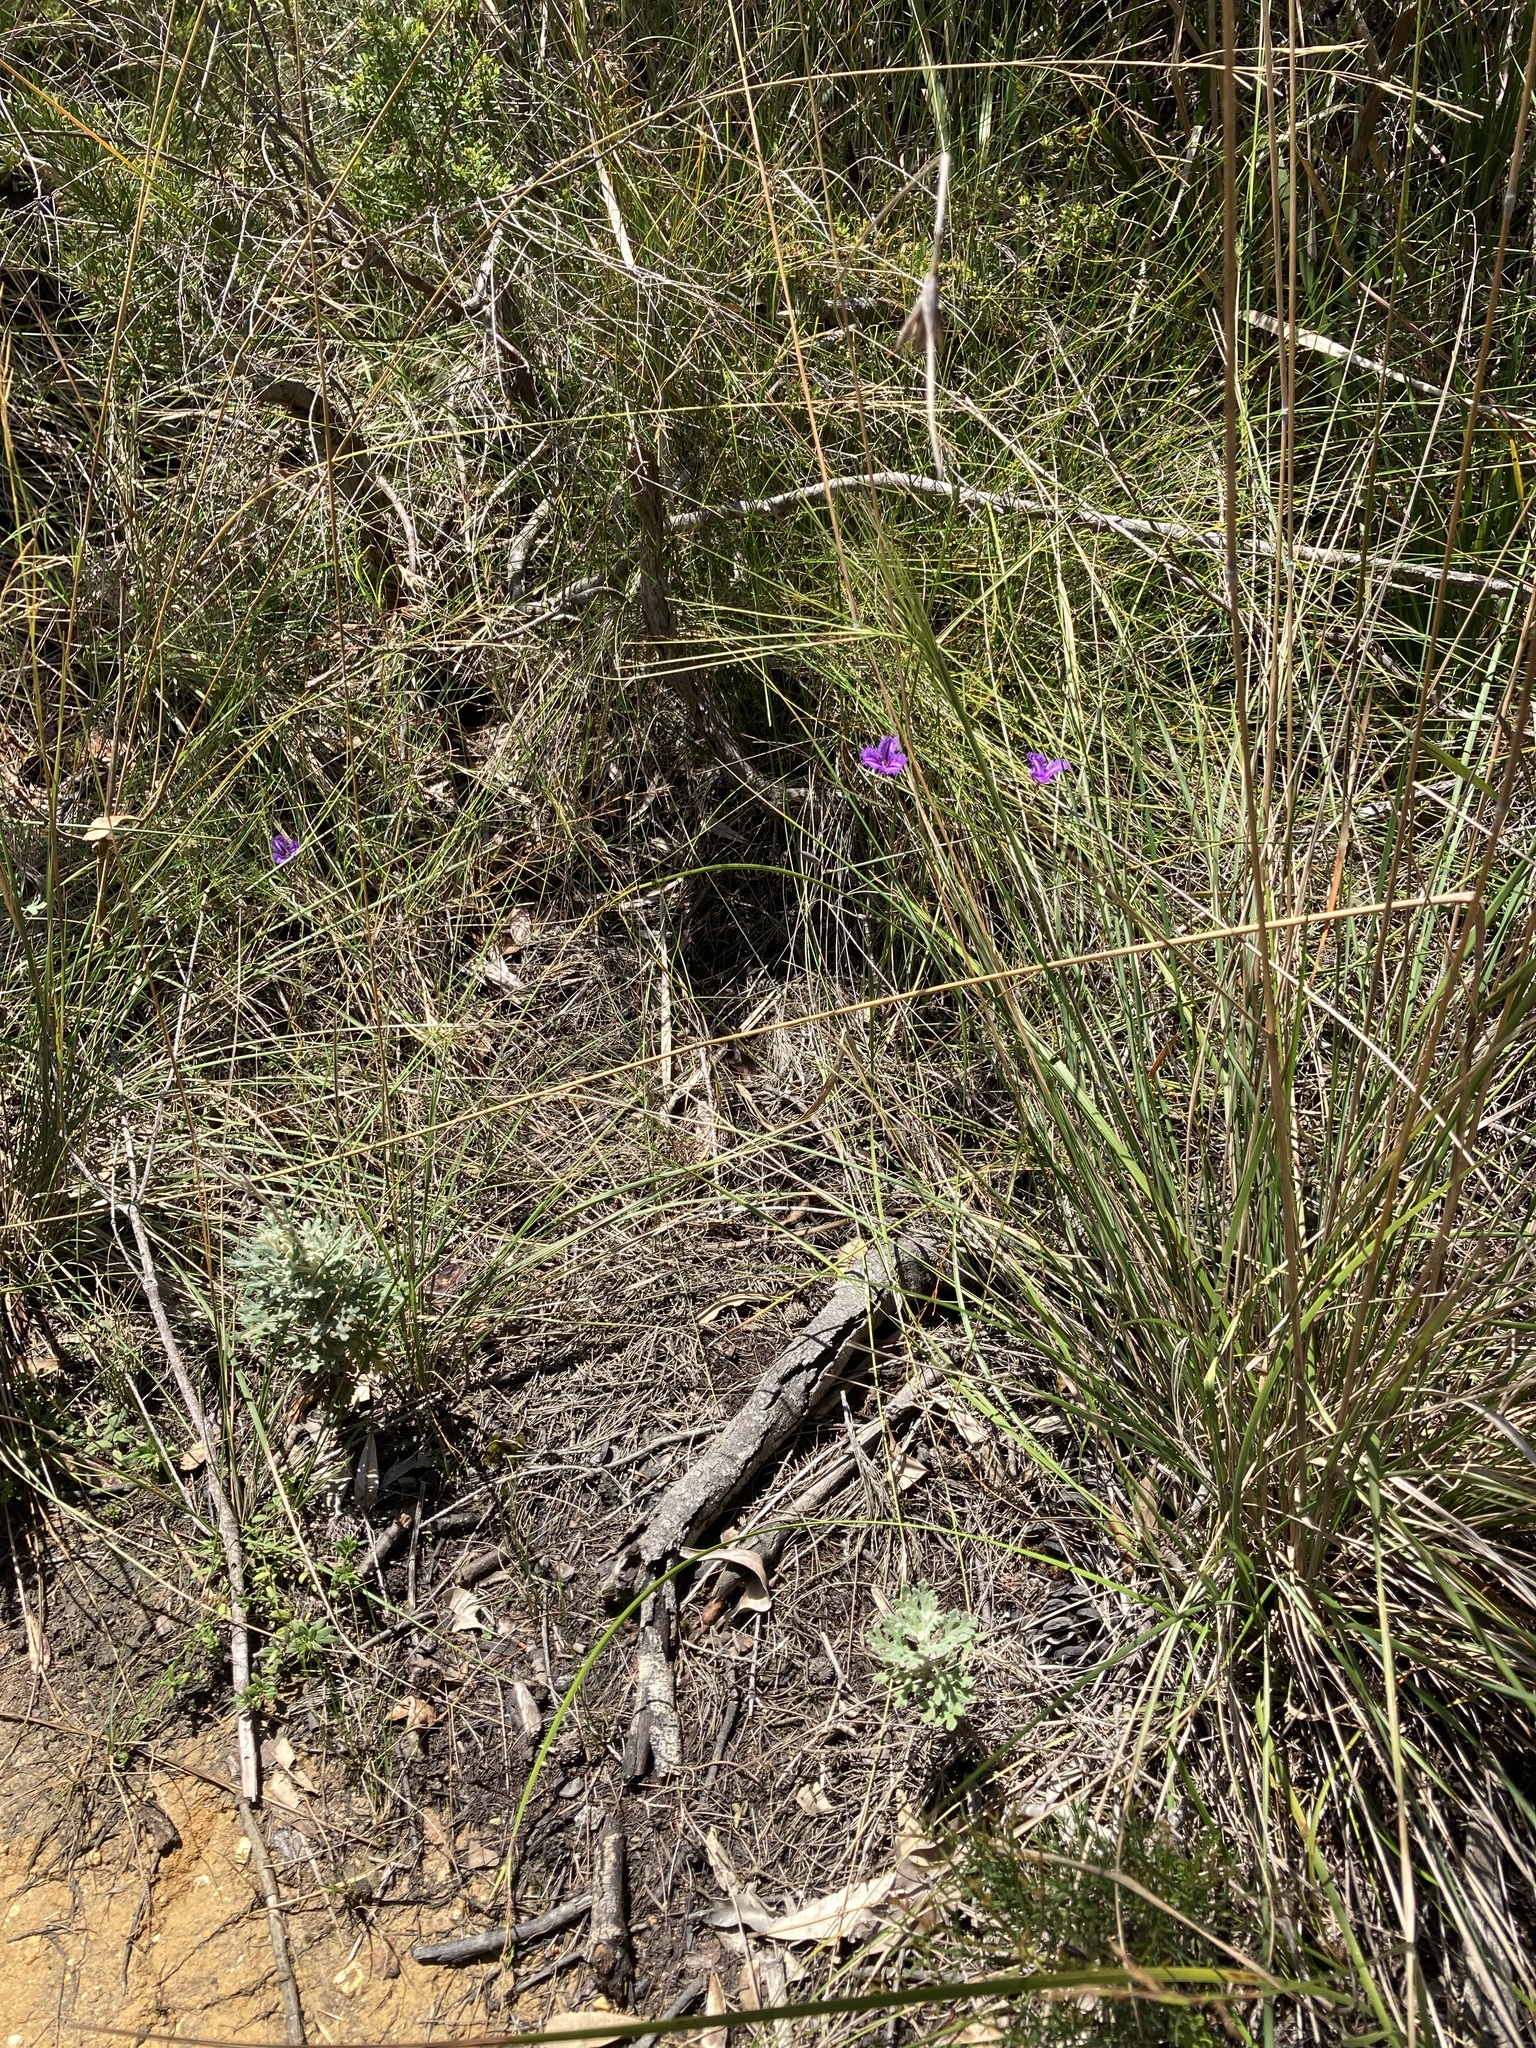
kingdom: Plantae
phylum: Tracheophyta
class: Liliopsida
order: Asparagales
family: Asparagaceae
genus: Thysanotus
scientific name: Thysanotus tuberosus
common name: Common fringed-lily
